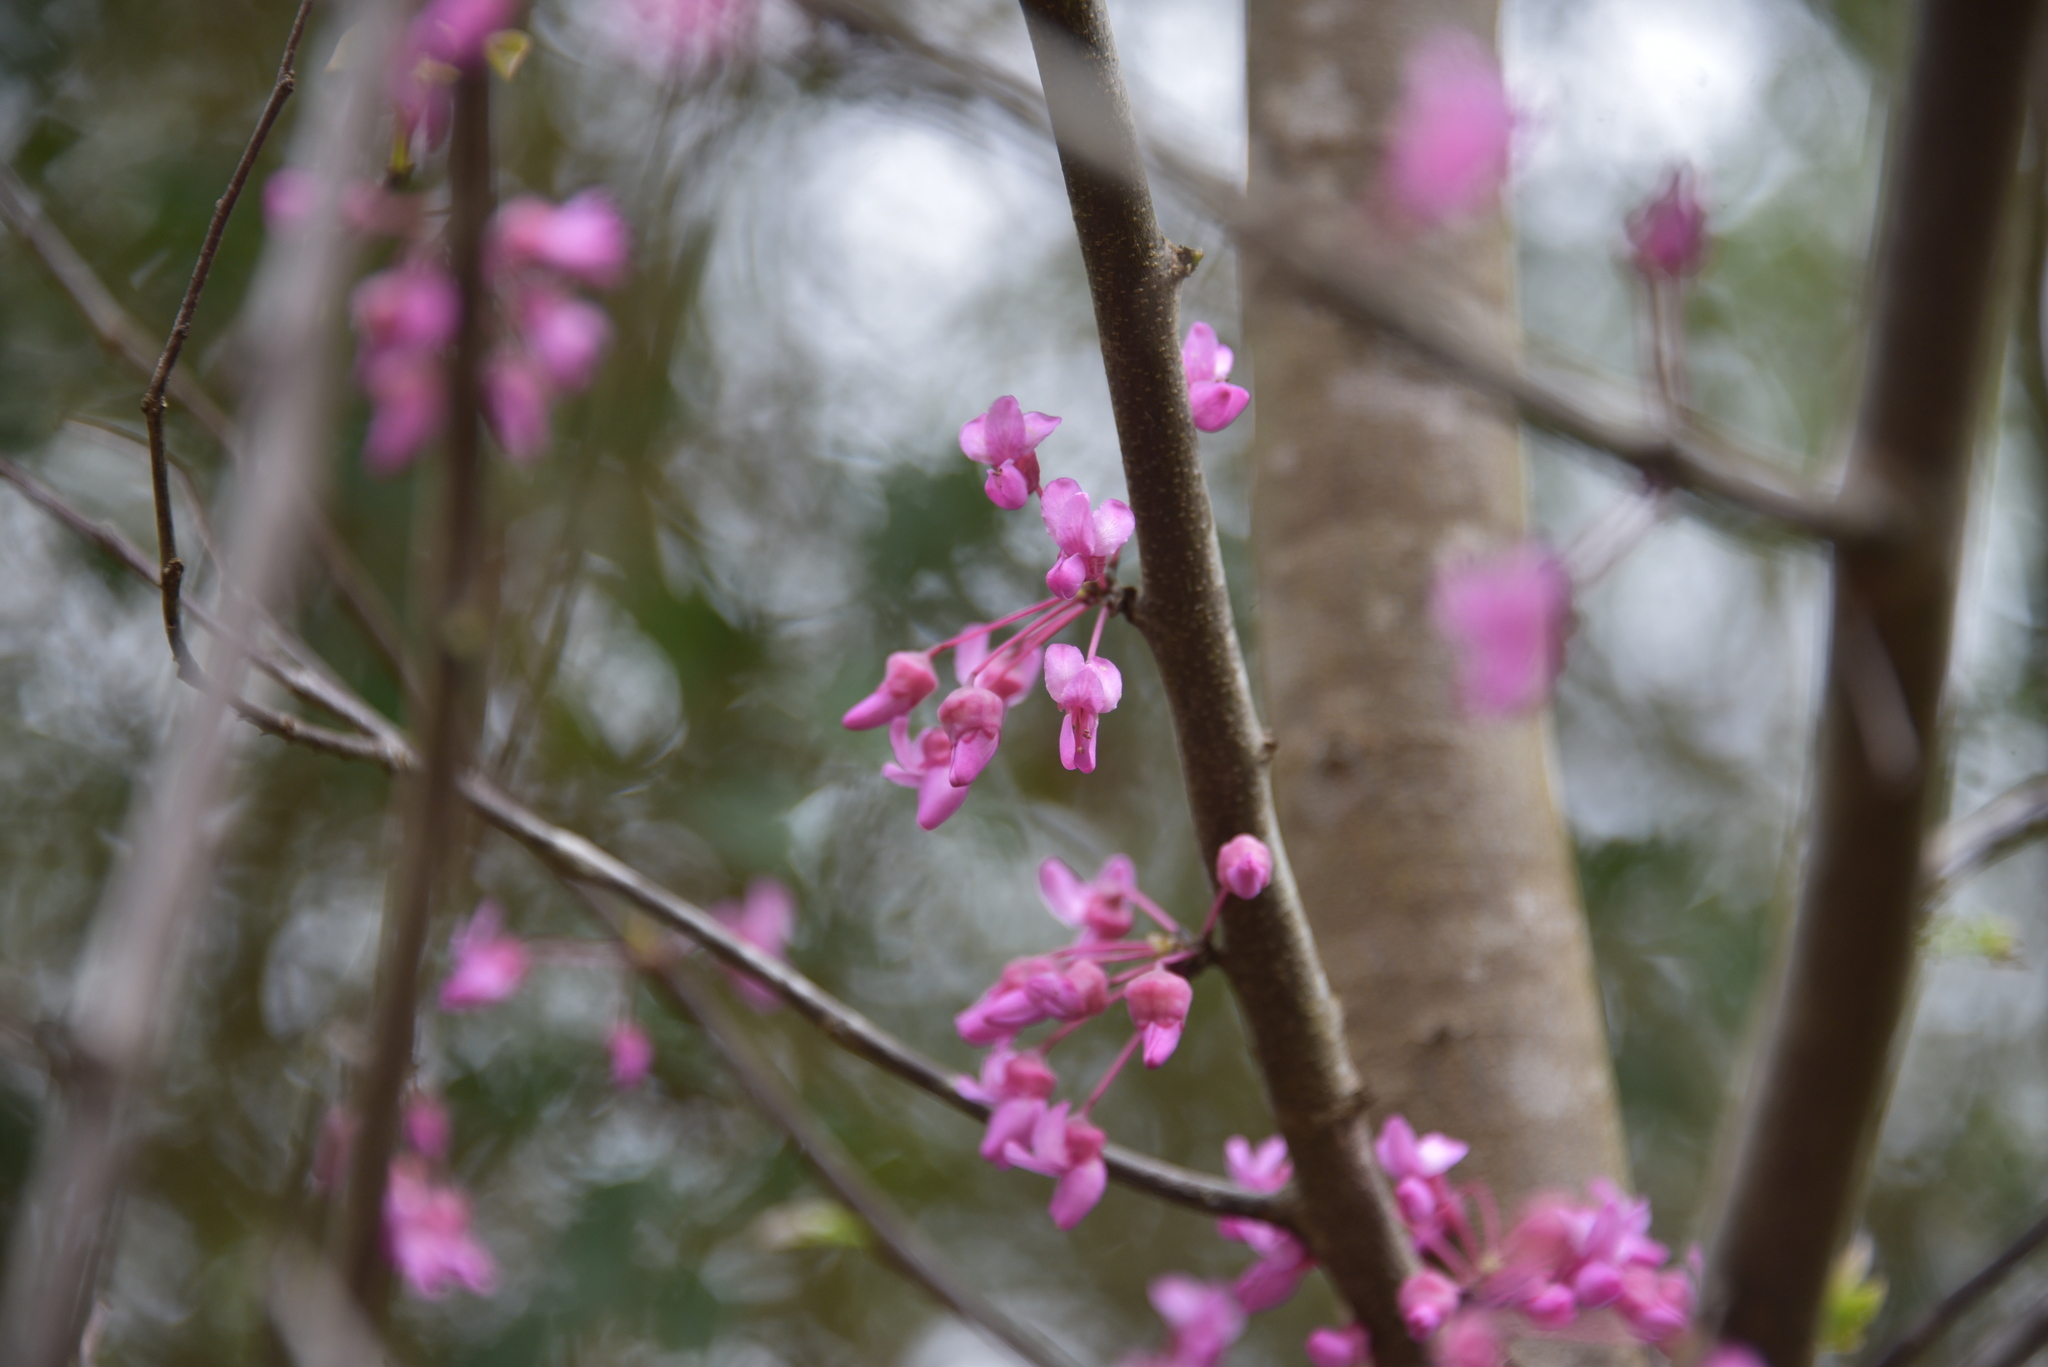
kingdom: Plantae
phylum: Tracheophyta
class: Magnoliopsida
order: Fabales
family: Fabaceae
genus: Cercis
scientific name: Cercis canadensis
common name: Eastern redbud
